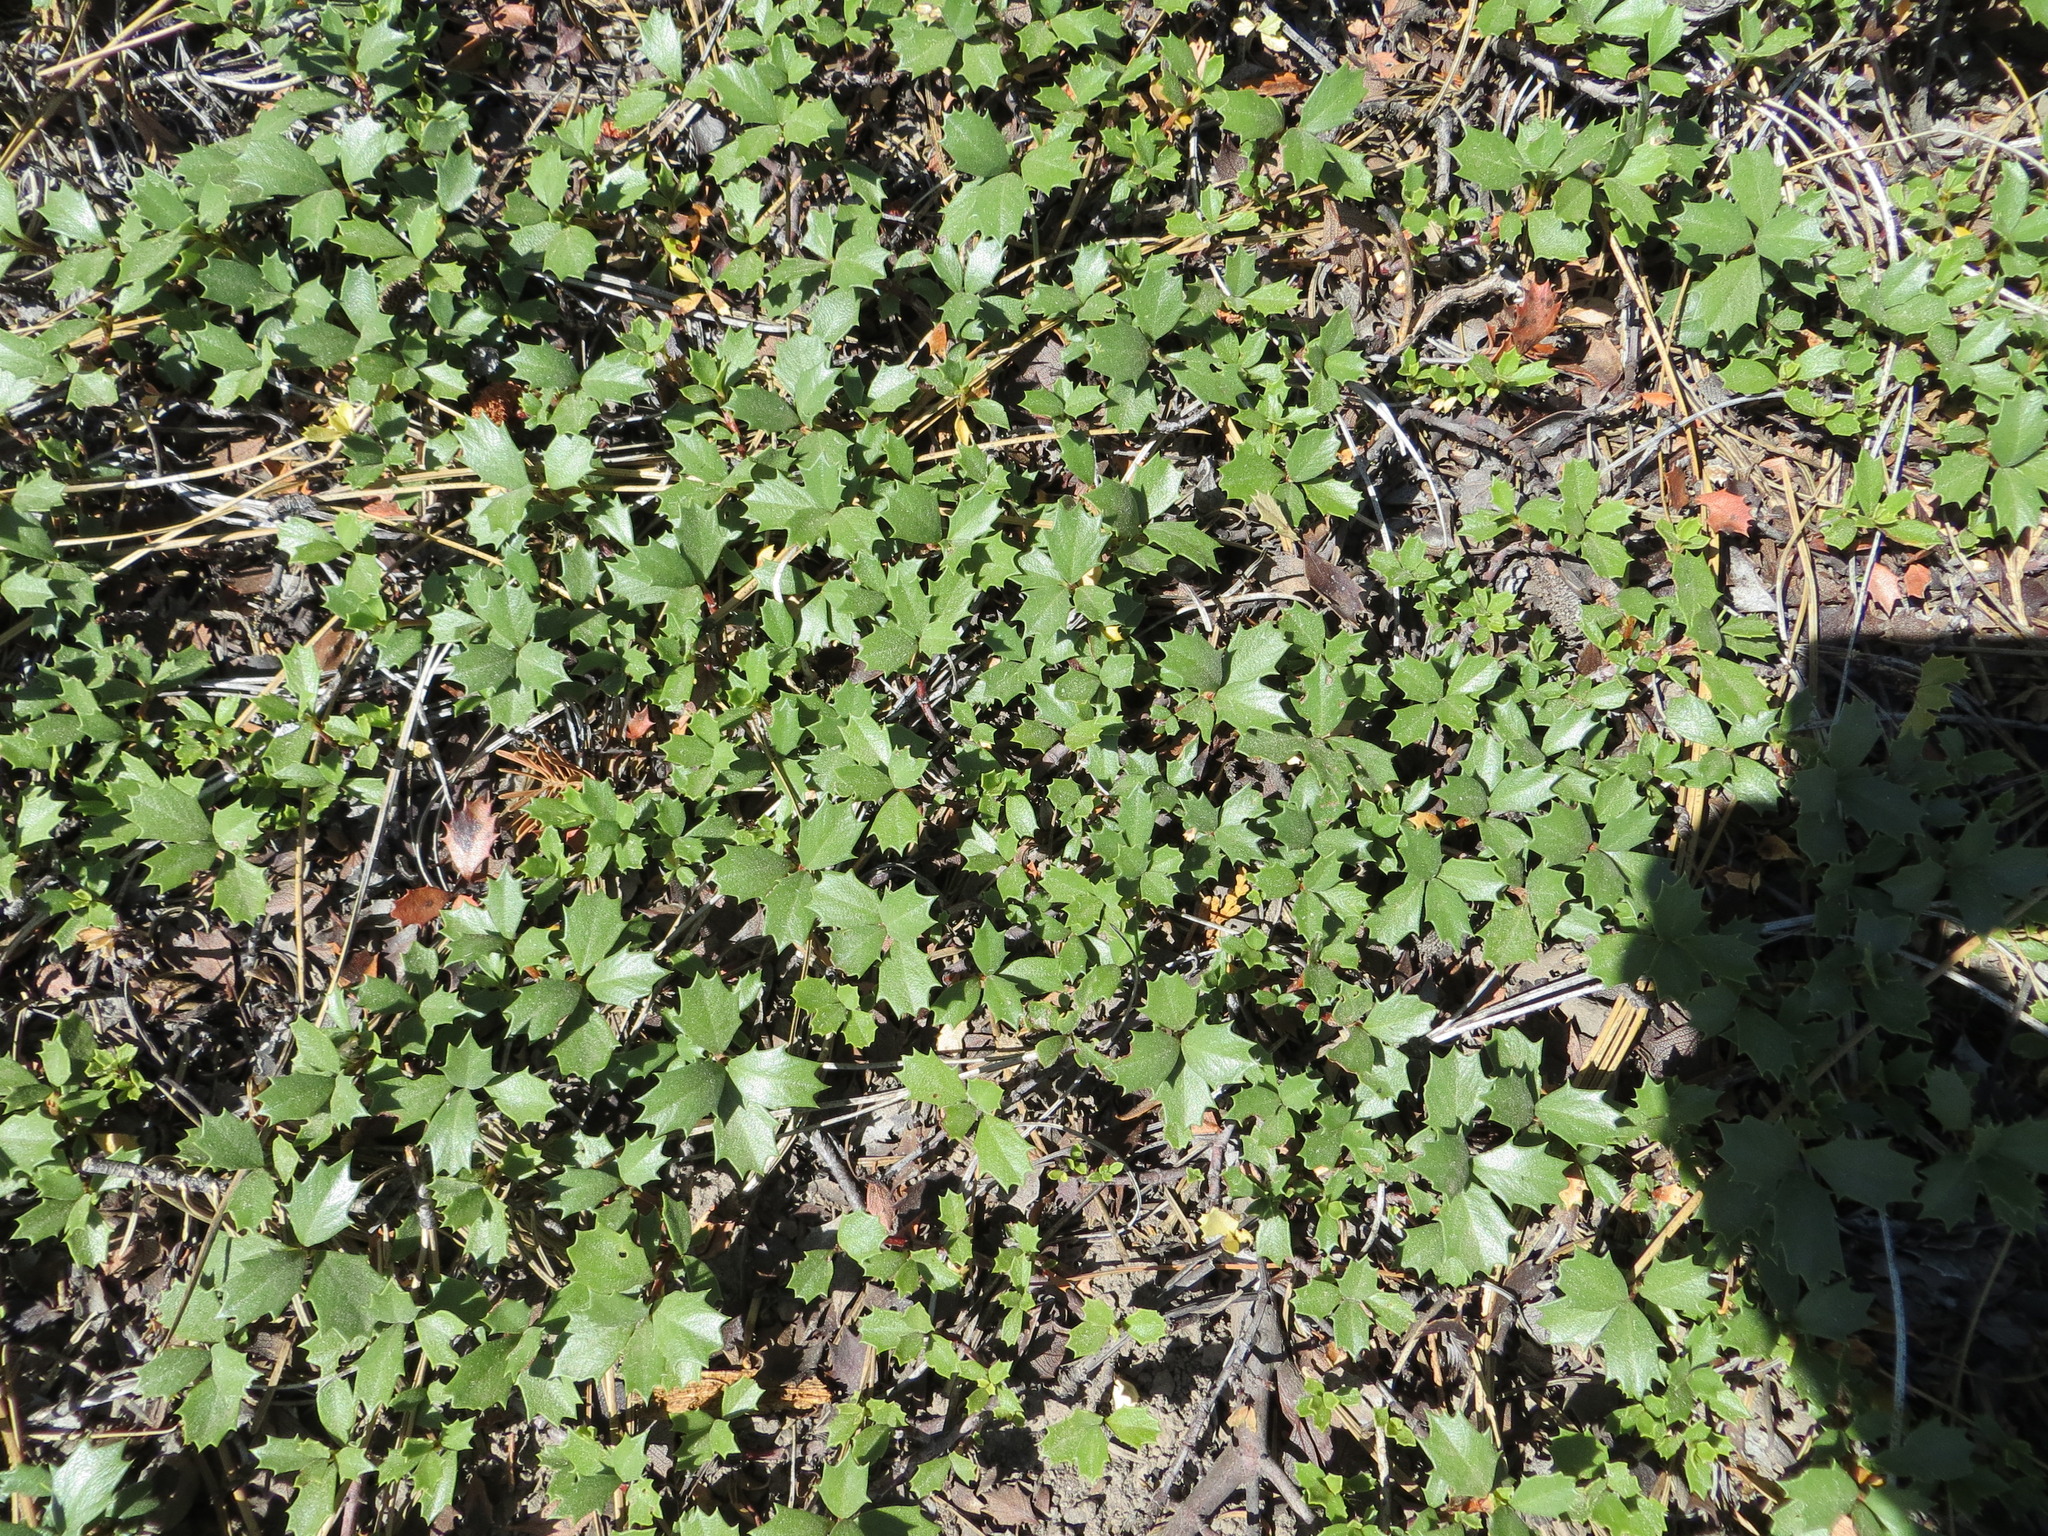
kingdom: Plantae
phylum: Tracheophyta
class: Magnoliopsida
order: Rosales
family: Rhamnaceae
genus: Ceanothus
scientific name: Ceanothus prostratus
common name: Mahala-mat
